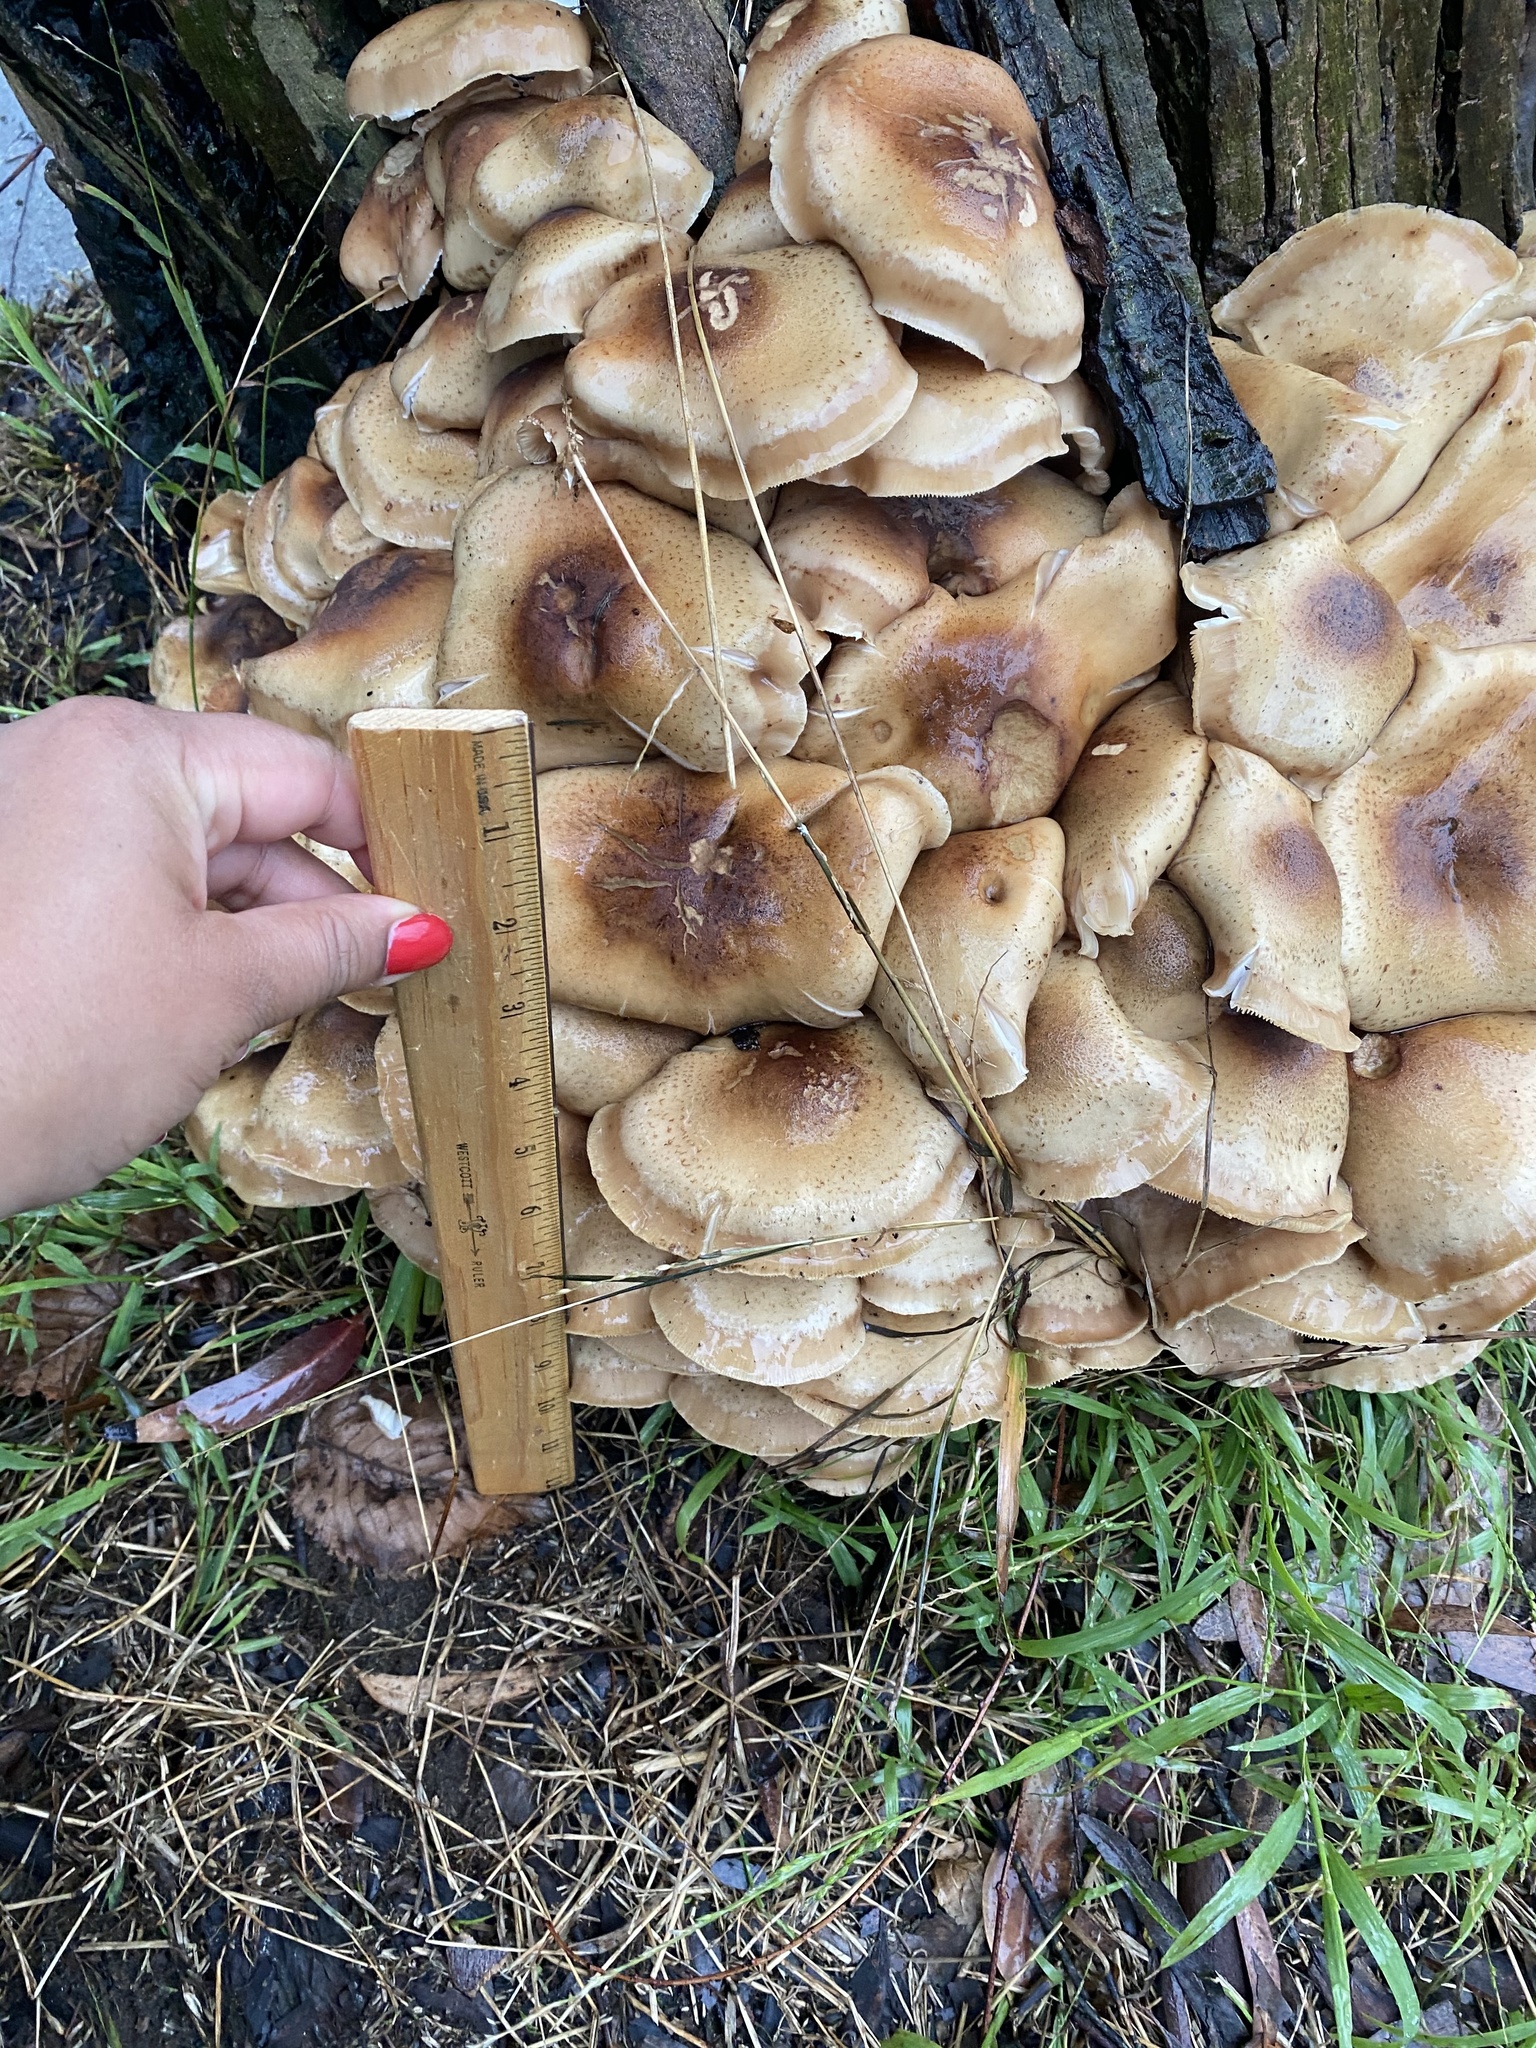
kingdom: Fungi
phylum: Basidiomycota
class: Agaricomycetes
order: Agaricales
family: Physalacriaceae
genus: Armillaria
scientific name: Armillaria mellea
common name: Honey fungus
